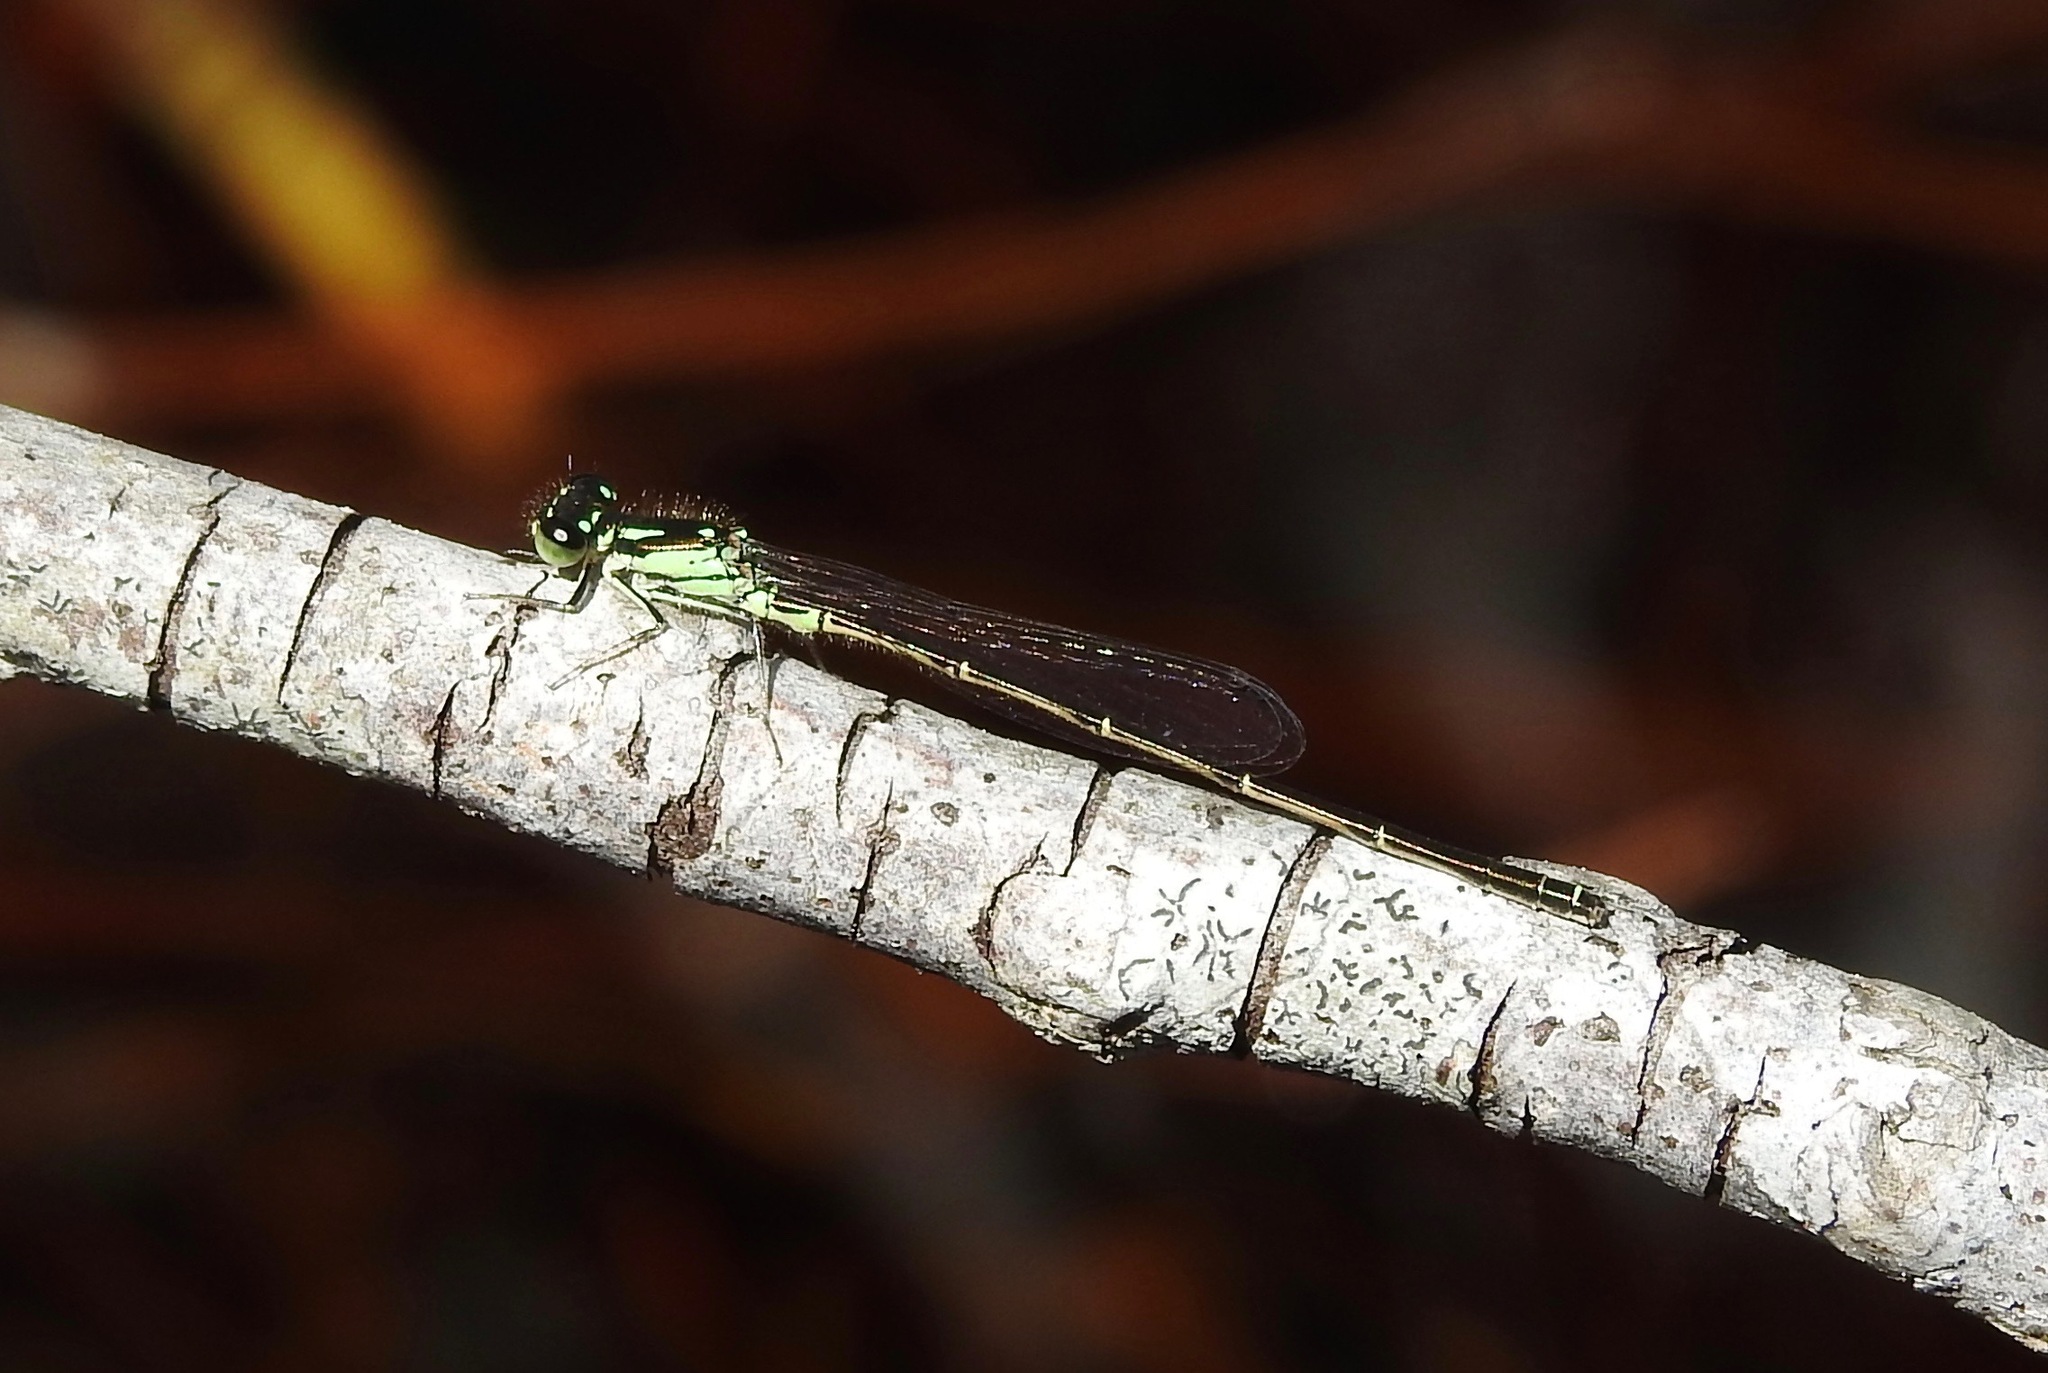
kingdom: Animalia
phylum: Arthropoda
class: Insecta
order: Odonata
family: Coenagrionidae
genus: Ischnura
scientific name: Ischnura posita
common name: Fragile forktail
